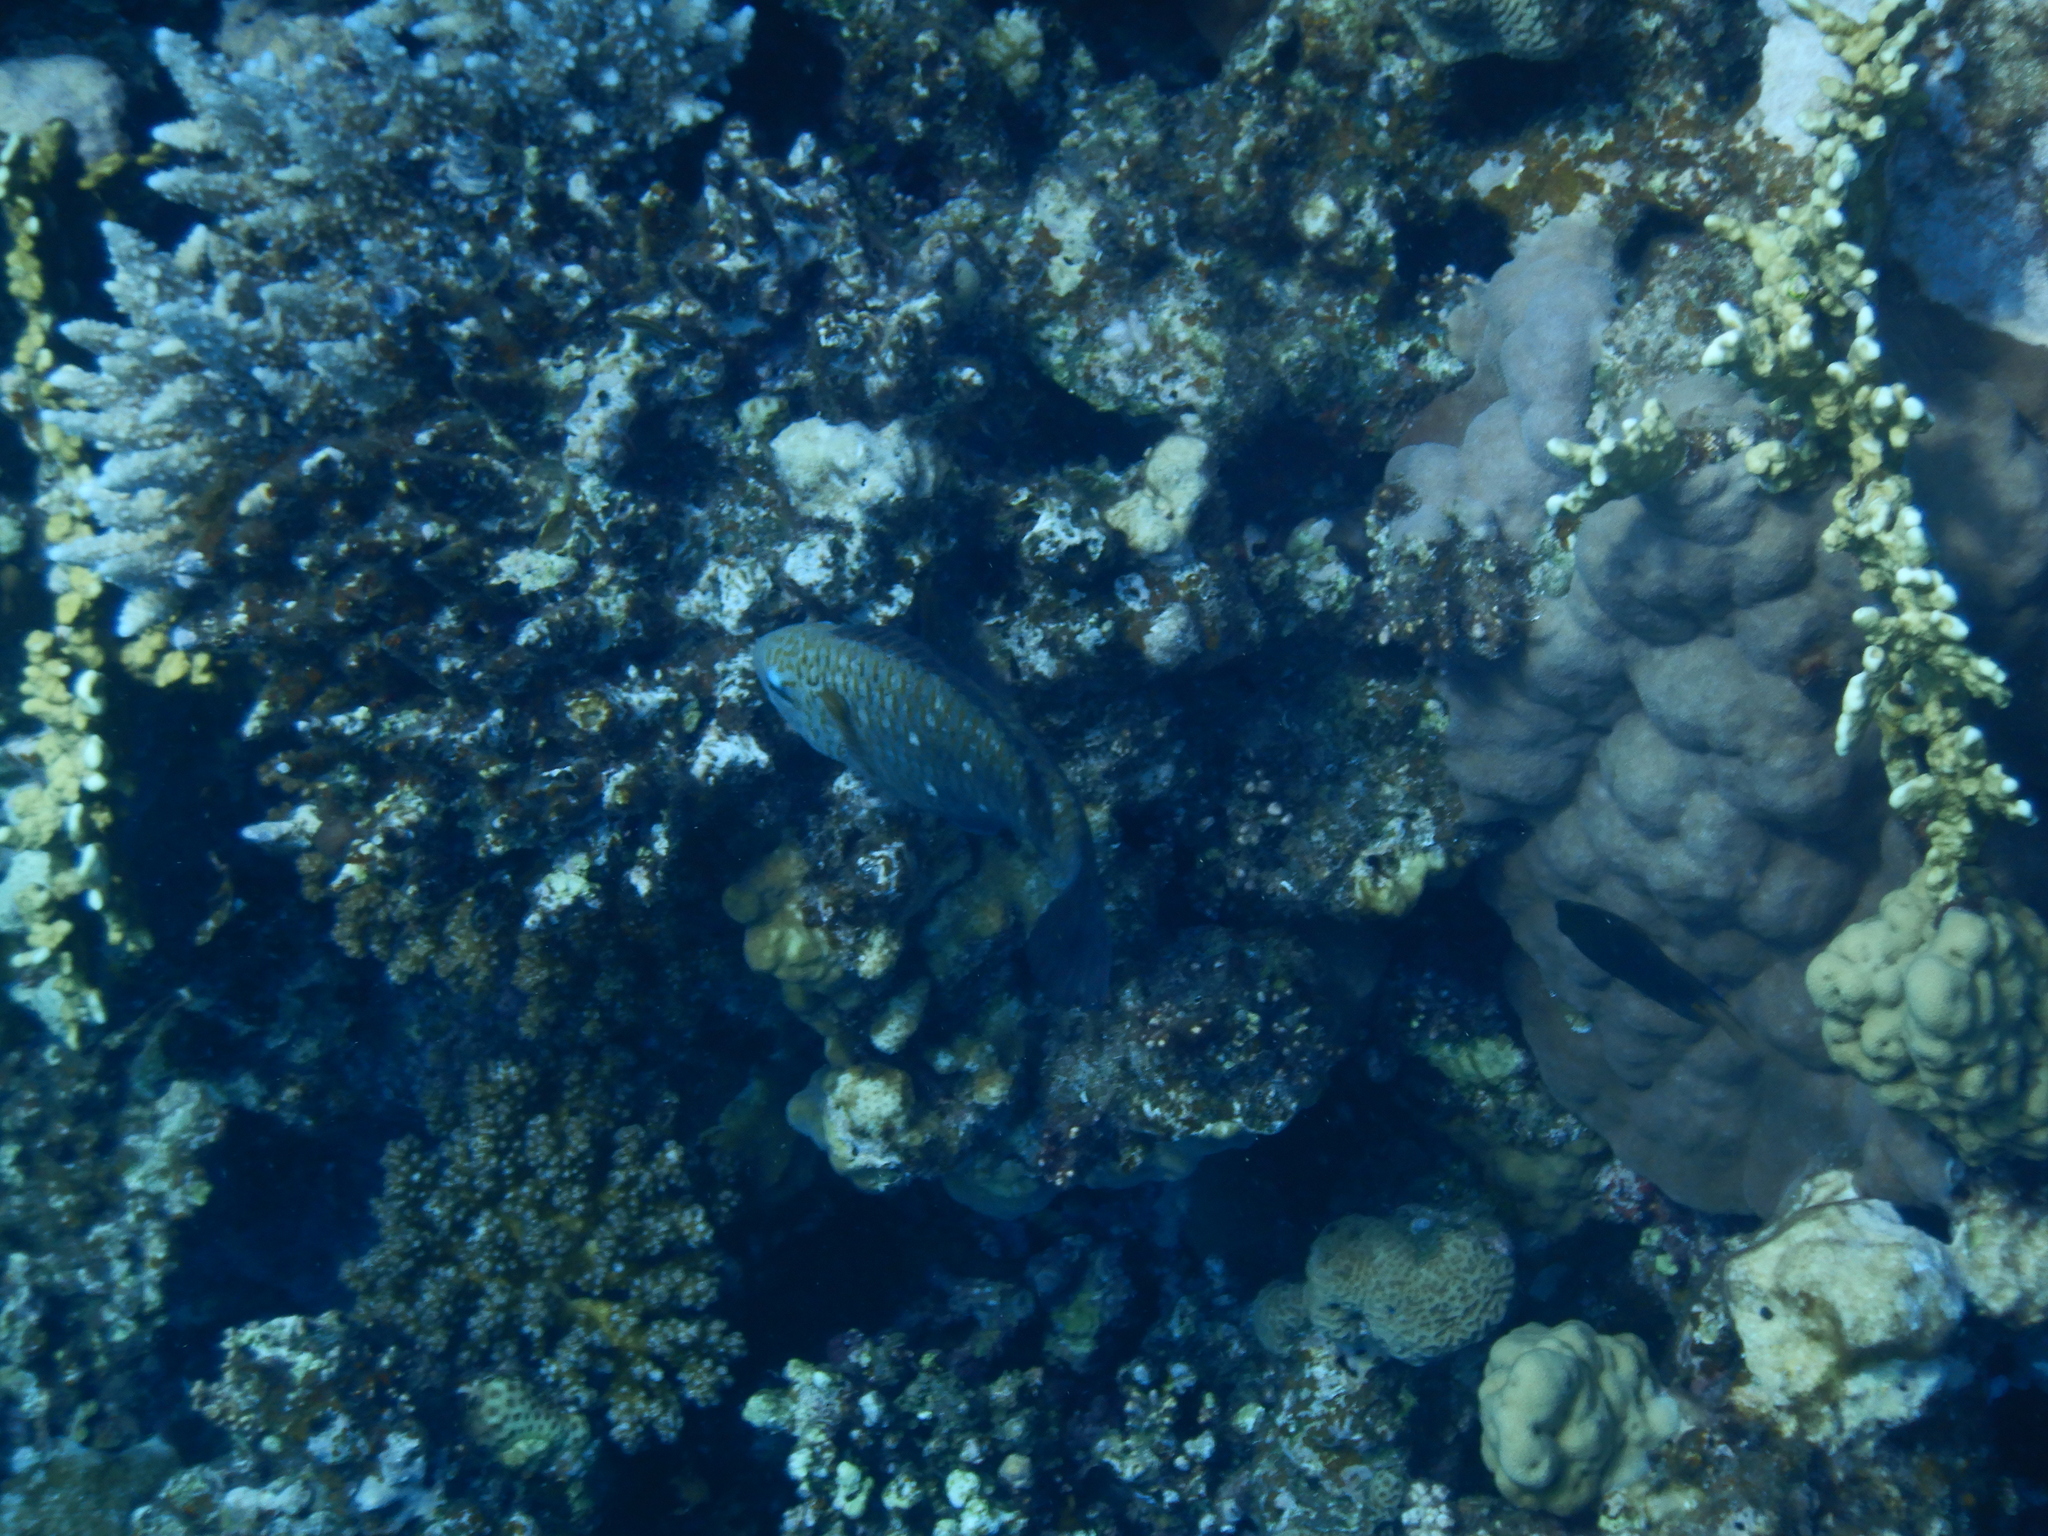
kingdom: Animalia
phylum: Chordata
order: Perciformes
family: Scaridae
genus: Chlorurus
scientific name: Chlorurus sordidus
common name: Bullethead parrotfish
